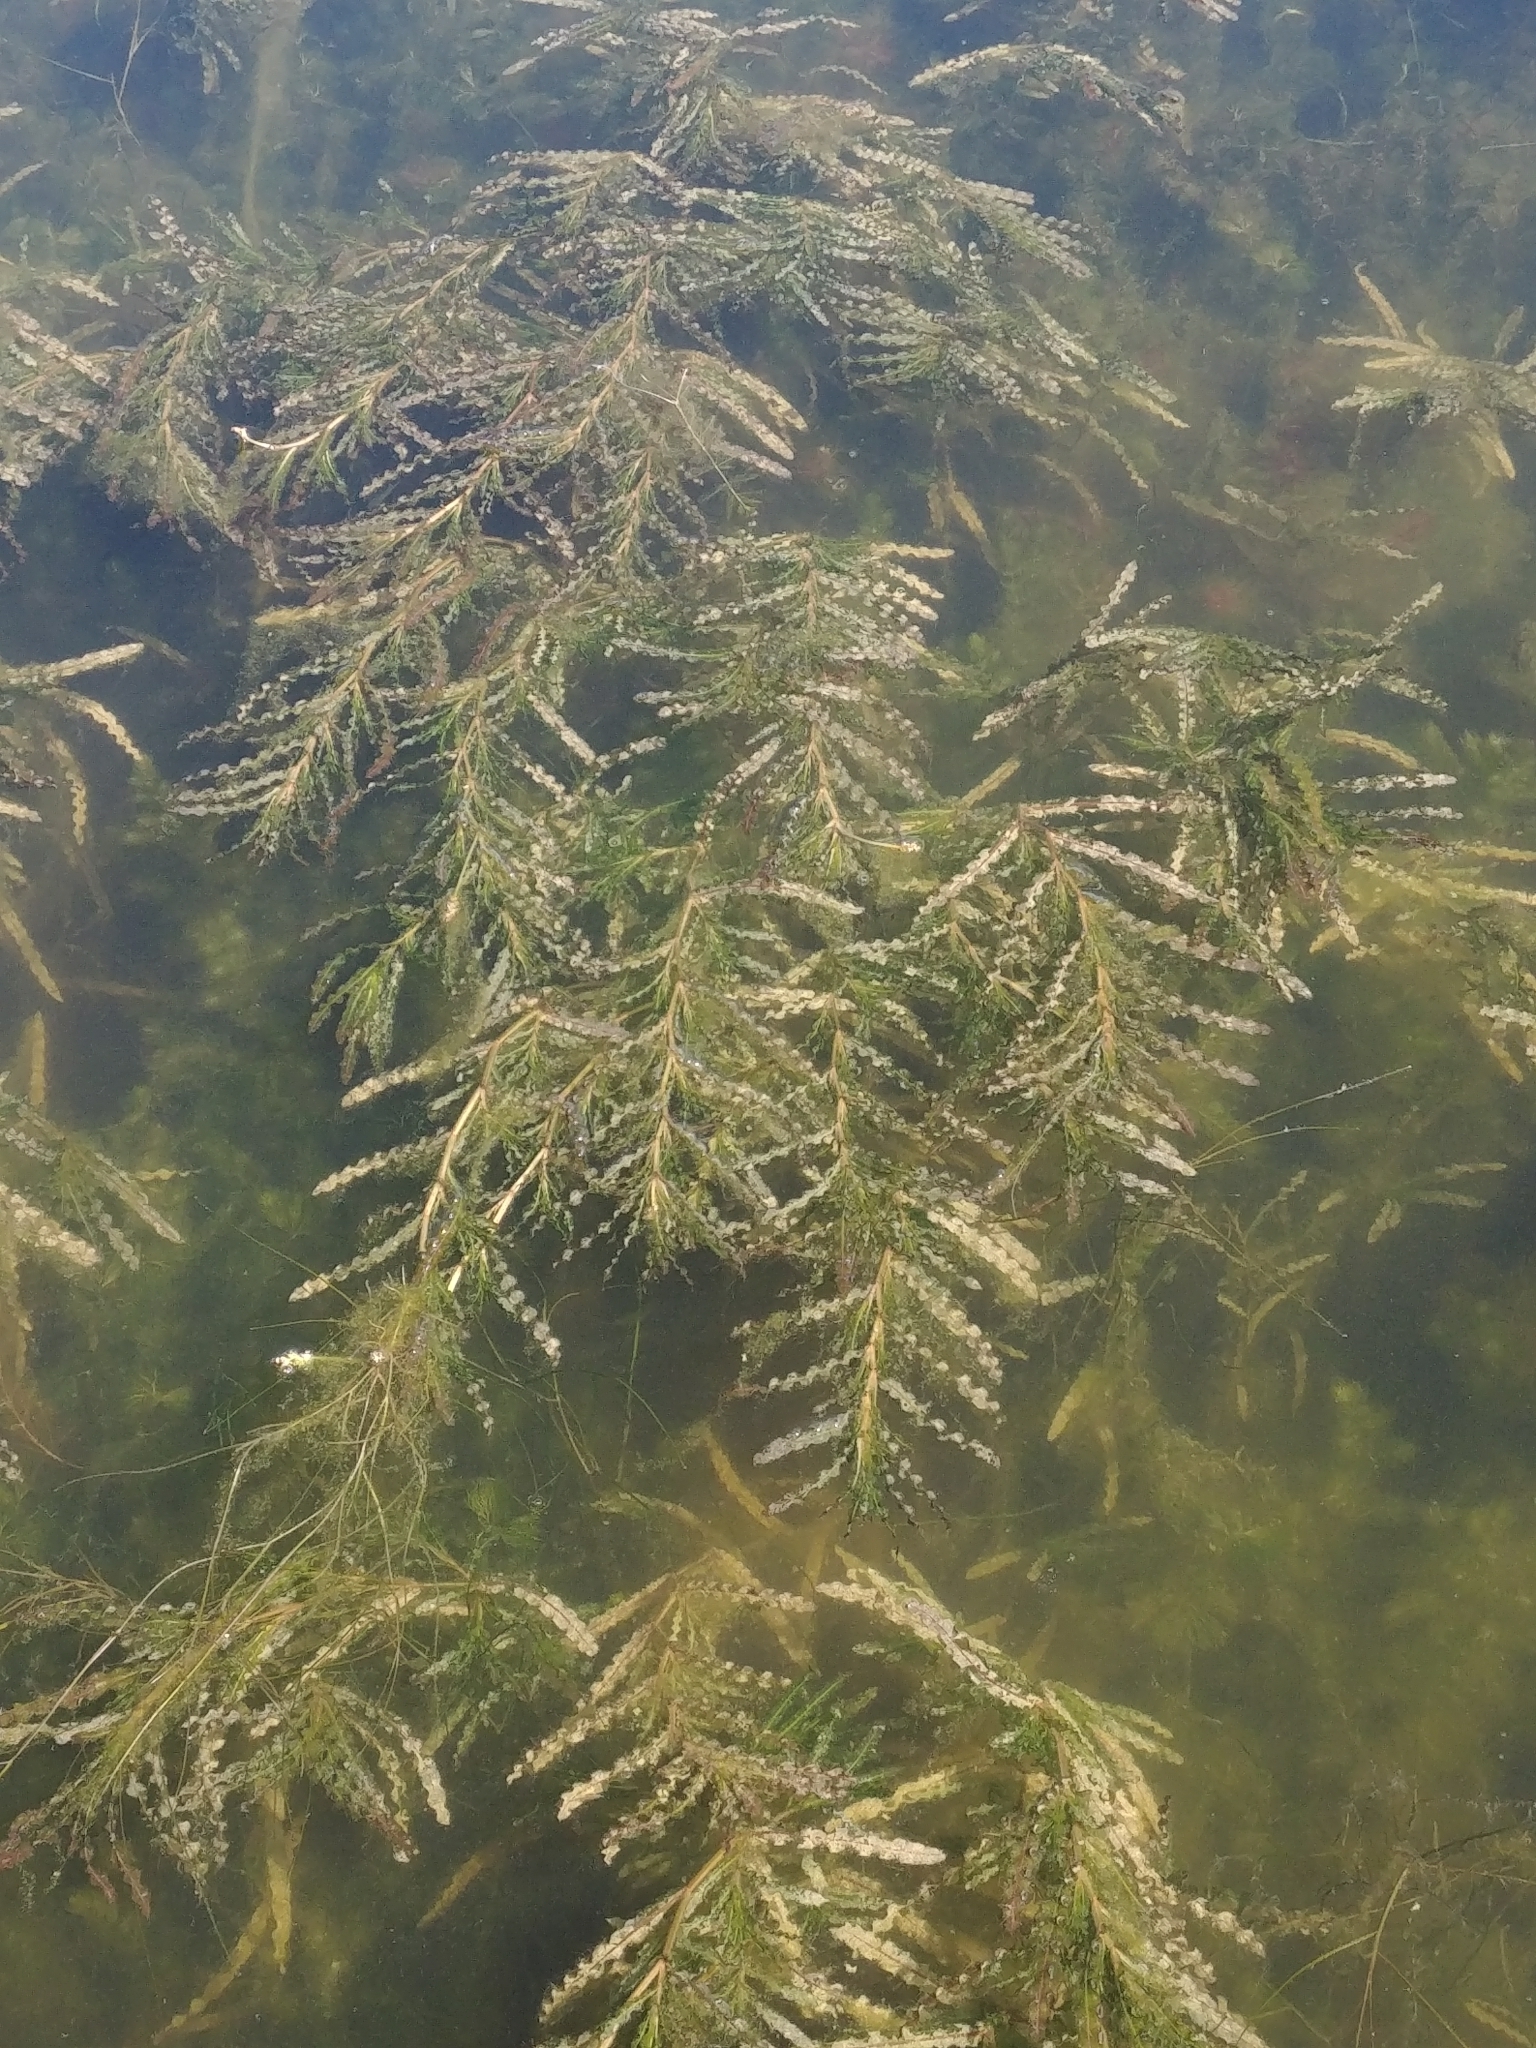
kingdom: Plantae
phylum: Tracheophyta
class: Liliopsida
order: Alismatales
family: Potamogetonaceae
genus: Potamogeton
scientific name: Potamogeton crispus
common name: Curled pondweed
